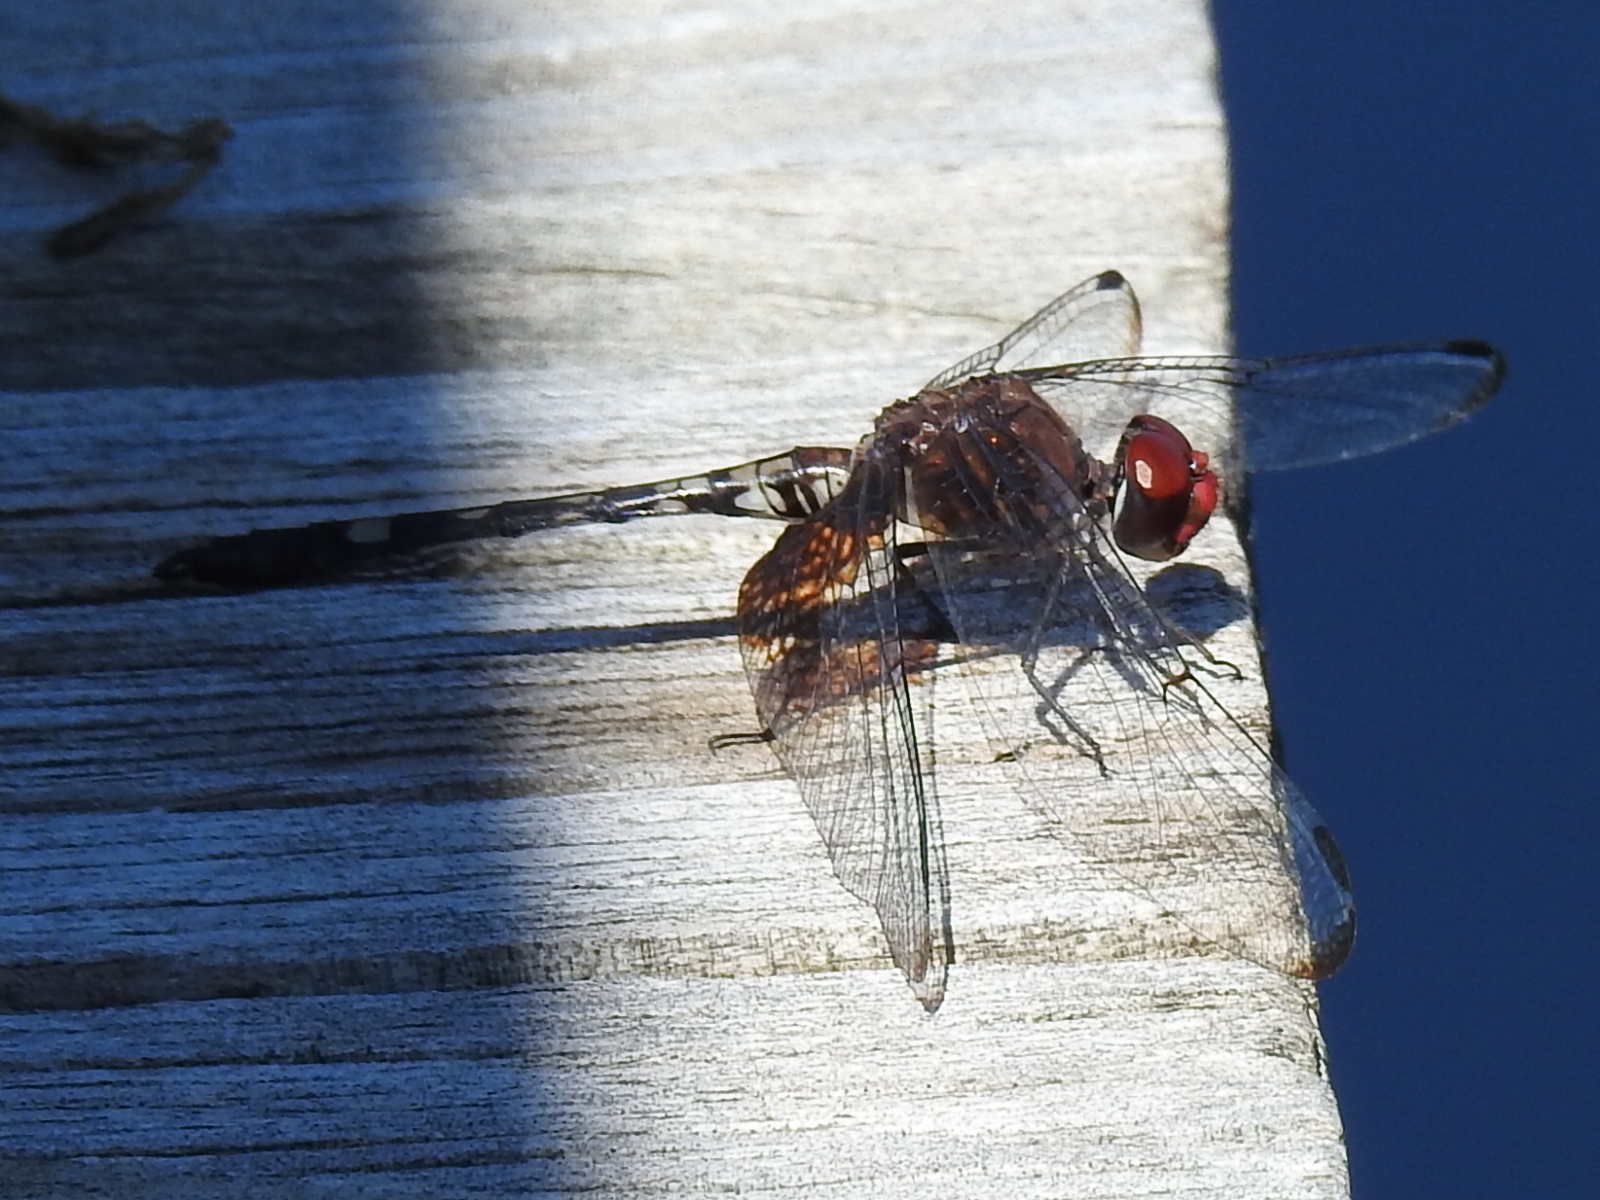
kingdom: Animalia
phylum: Arthropoda
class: Insecta
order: Odonata
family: Libellulidae
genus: Dythemis
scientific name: Dythemis fugax
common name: Checkered setwing
